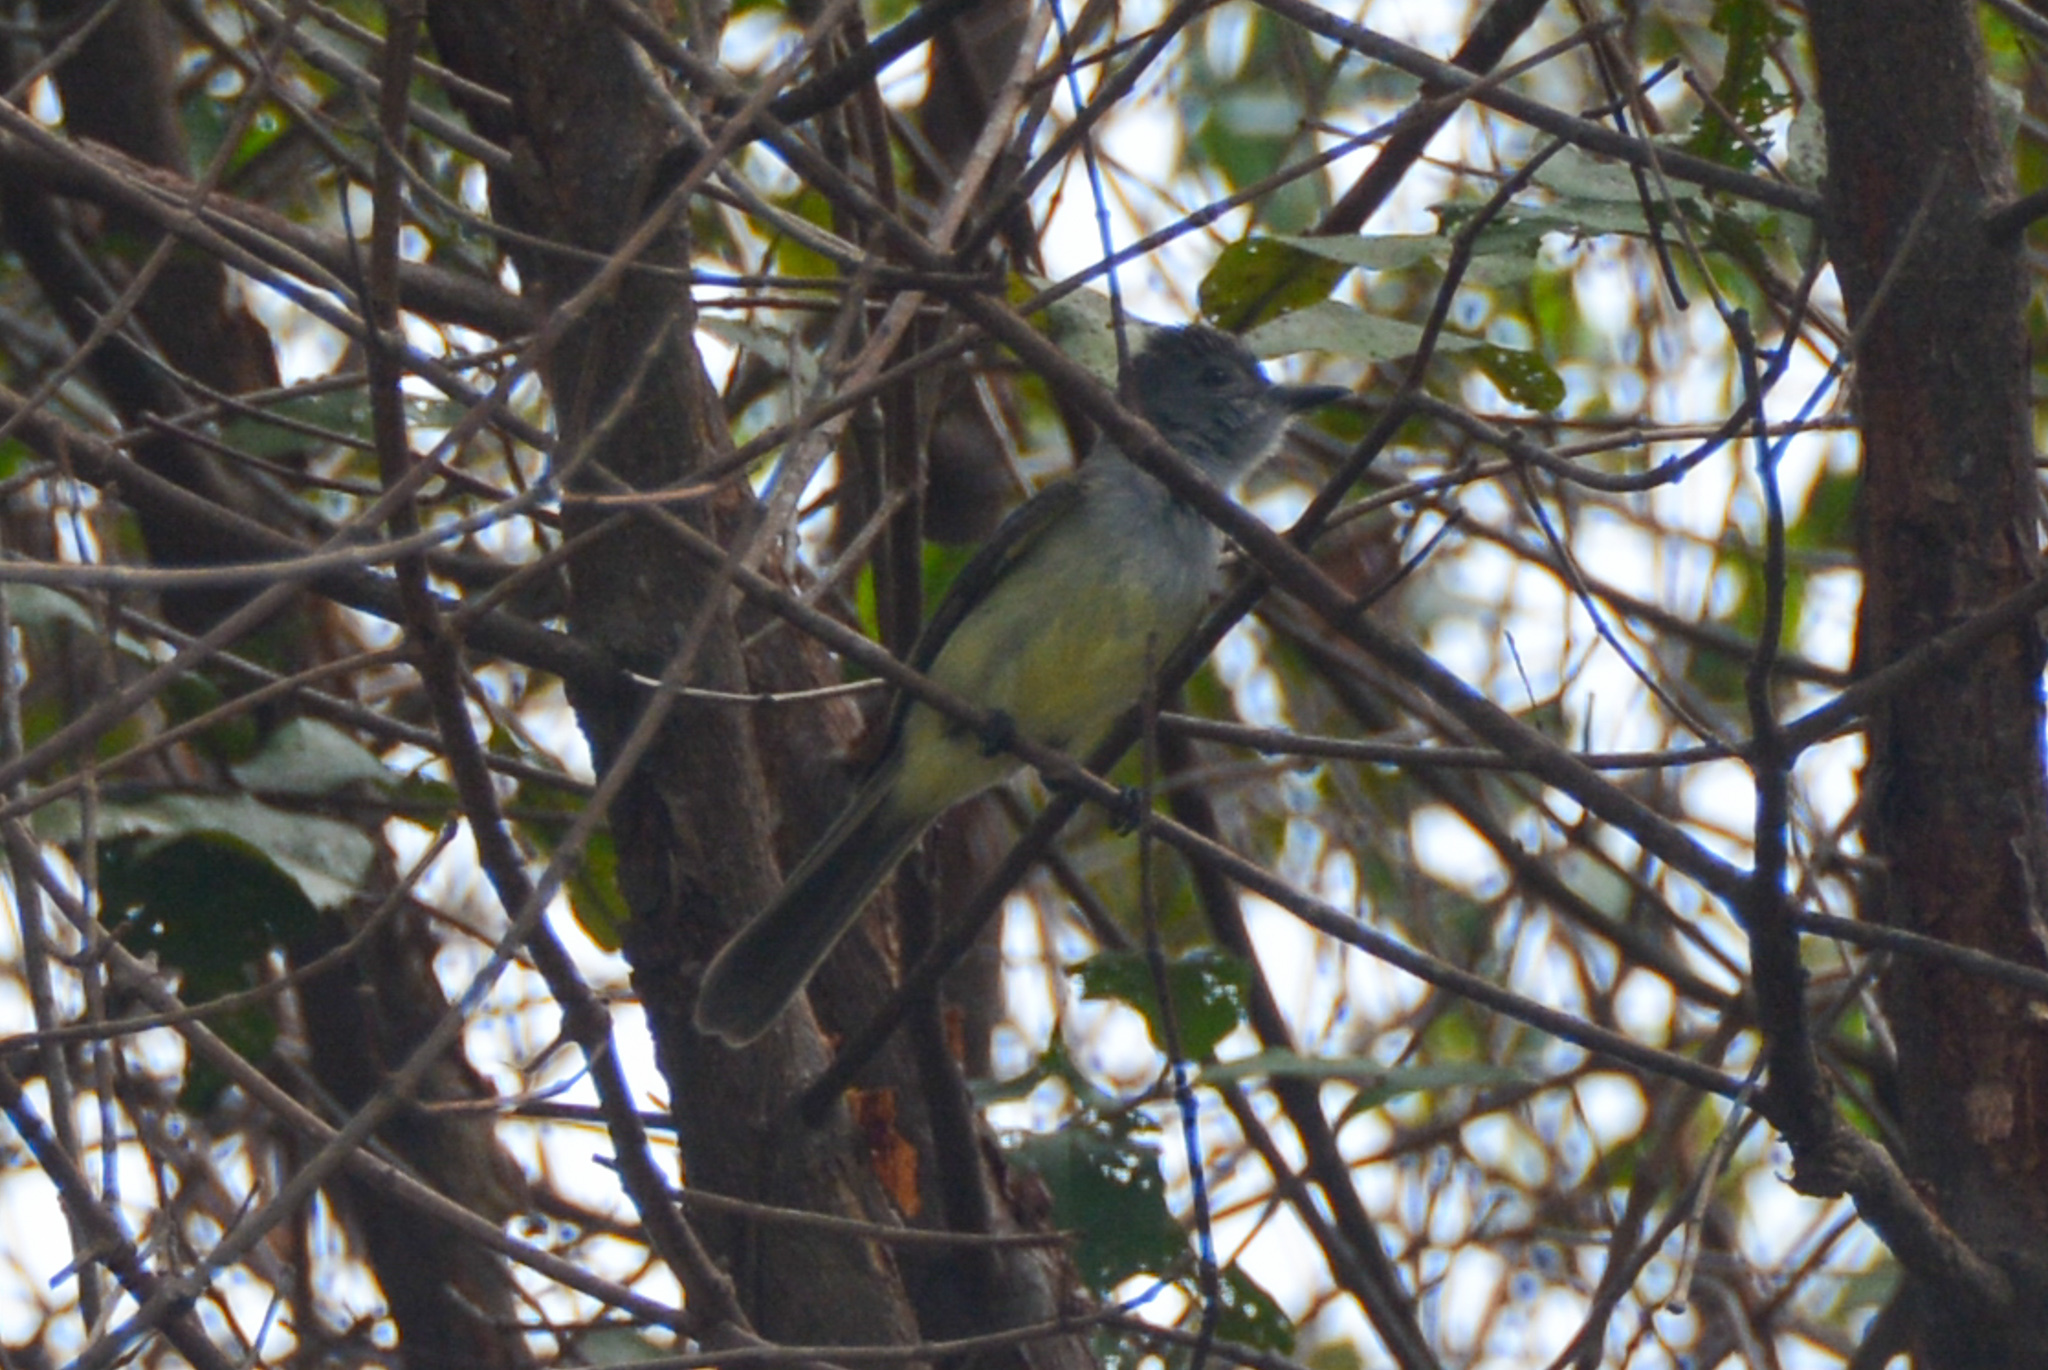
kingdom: Animalia
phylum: Chordata
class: Aves
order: Passeriformes
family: Tyrannidae
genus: Myiarchus
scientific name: Myiarchus panamensis
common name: Panama flycatcher
